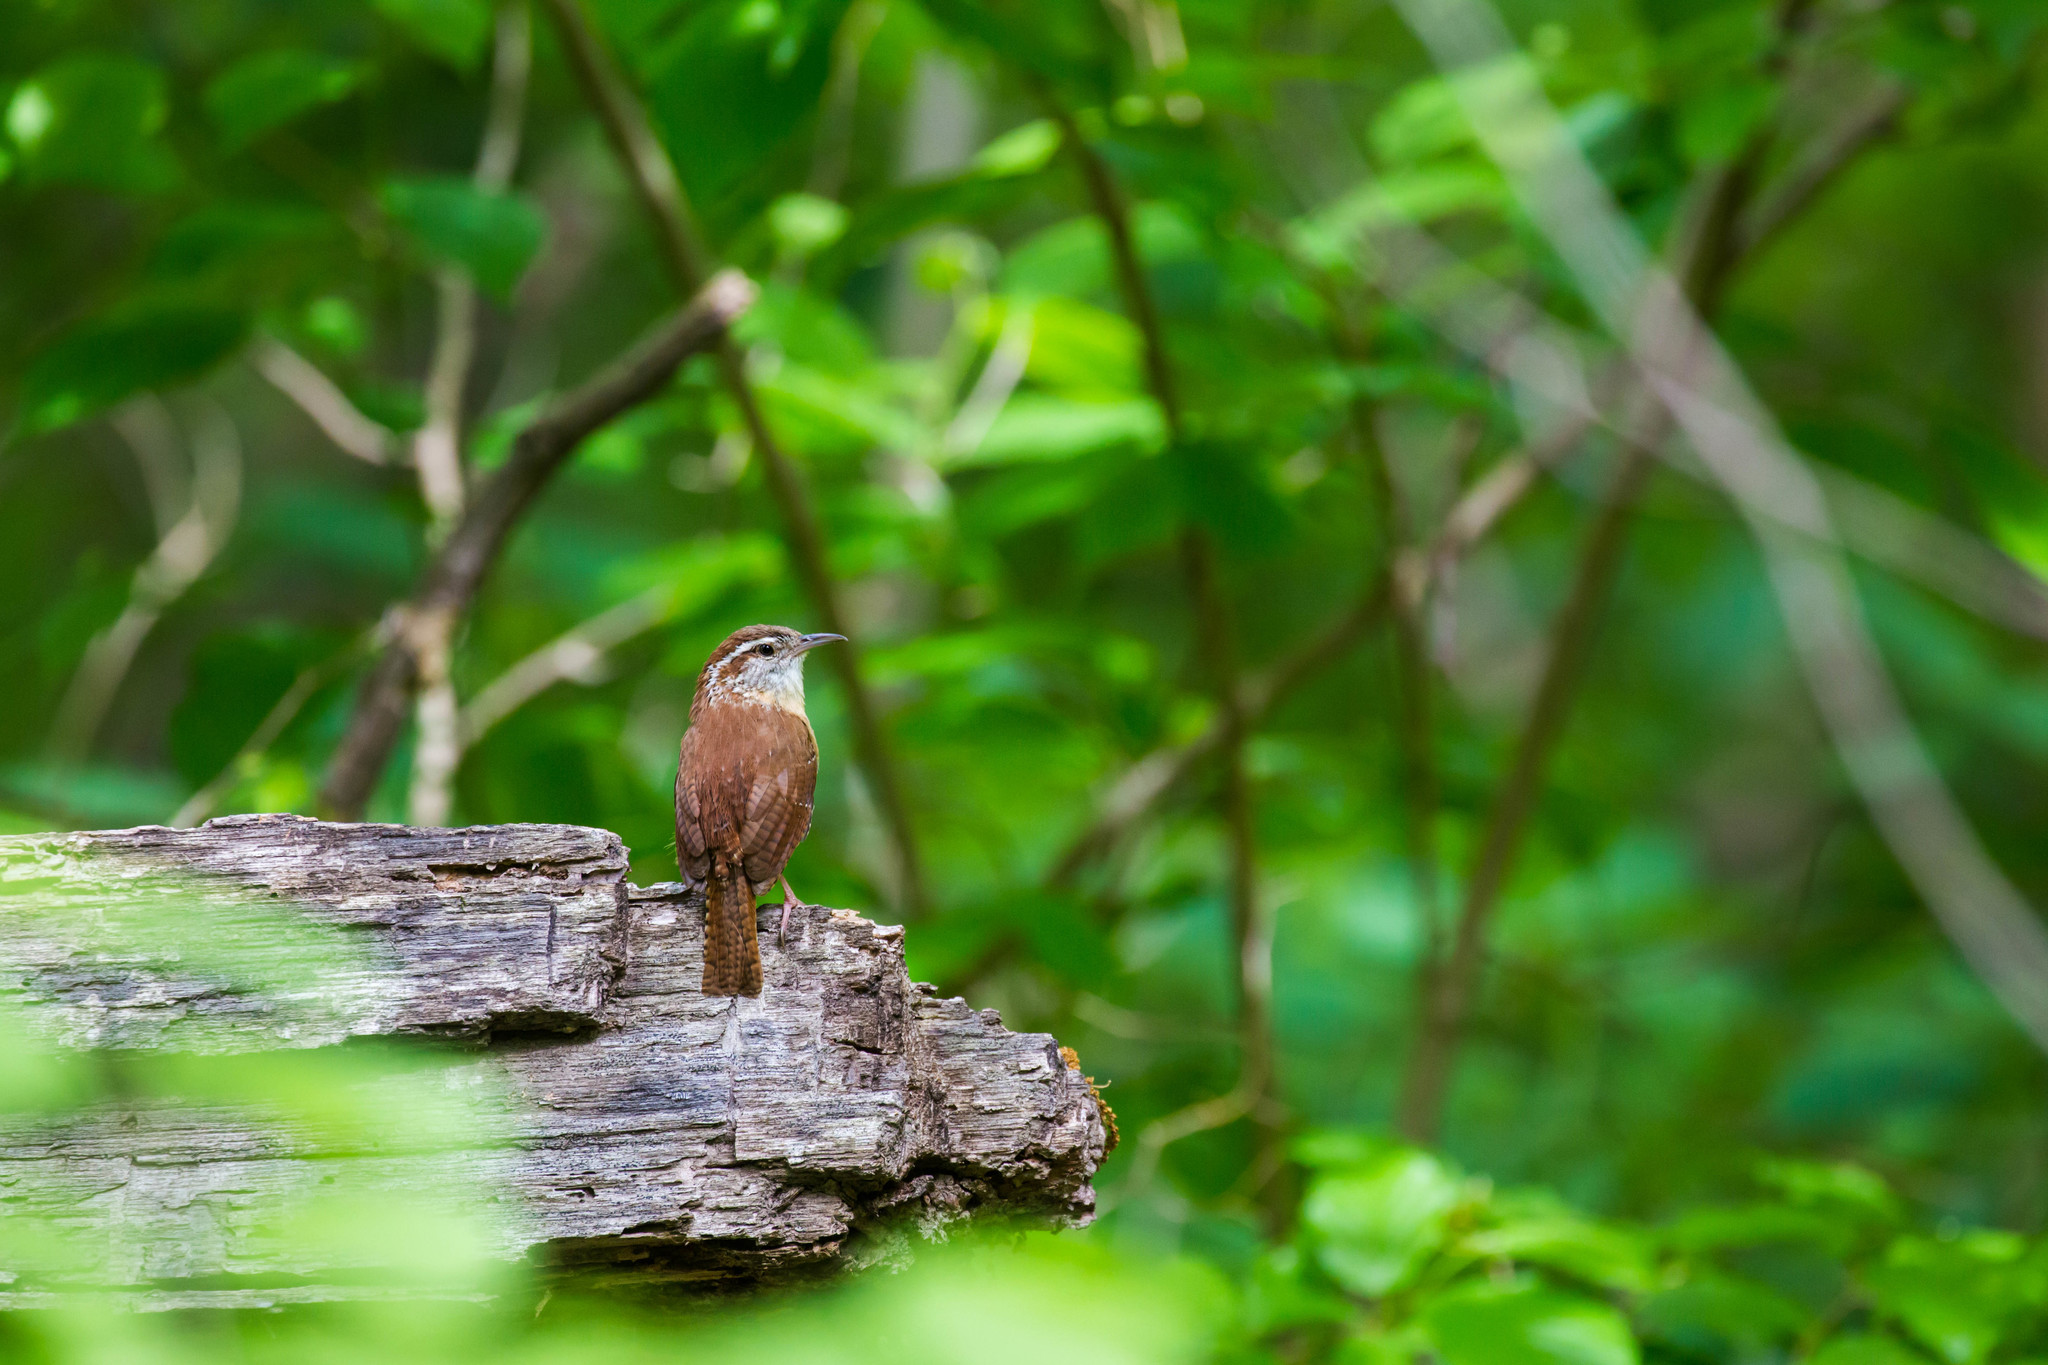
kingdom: Animalia
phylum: Chordata
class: Aves
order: Passeriformes
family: Troglodytidae
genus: Thryothorus
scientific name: Thryothorus ludovicianus
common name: Carolina wren
